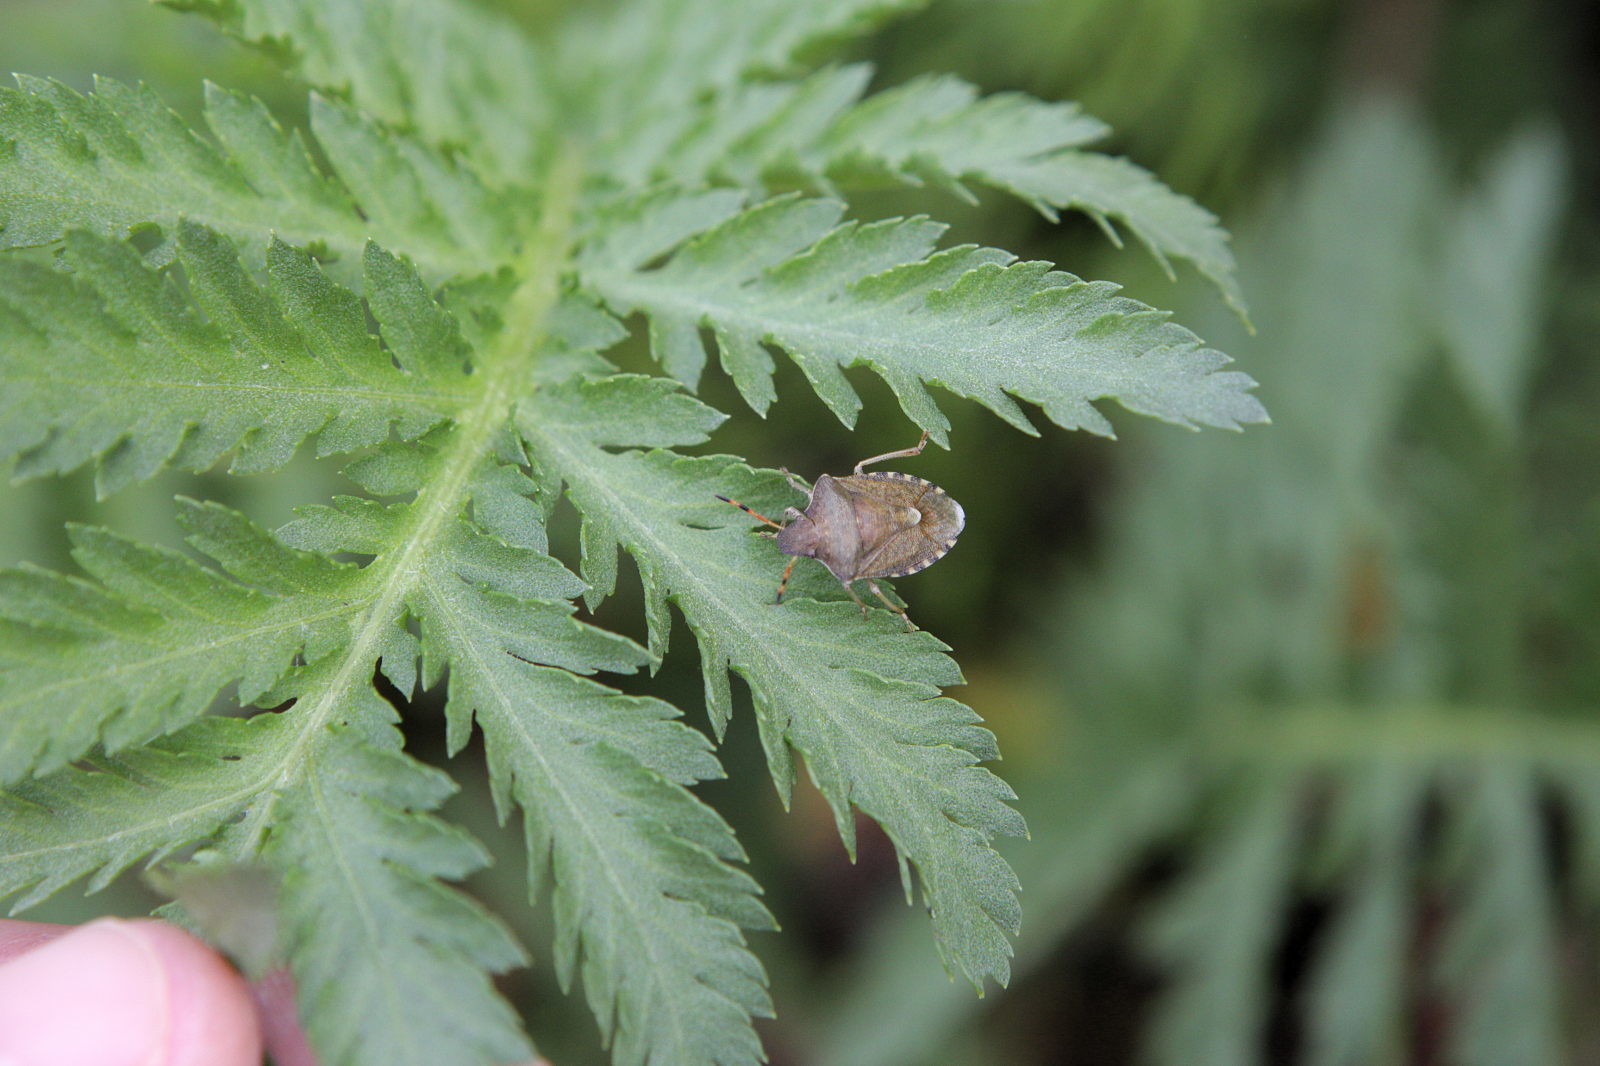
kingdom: Animalia
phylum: Arthropoda
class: Insecta
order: Hemiptera
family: Pentatomidae
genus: Holcostethus
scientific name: Holcostethus strictus
